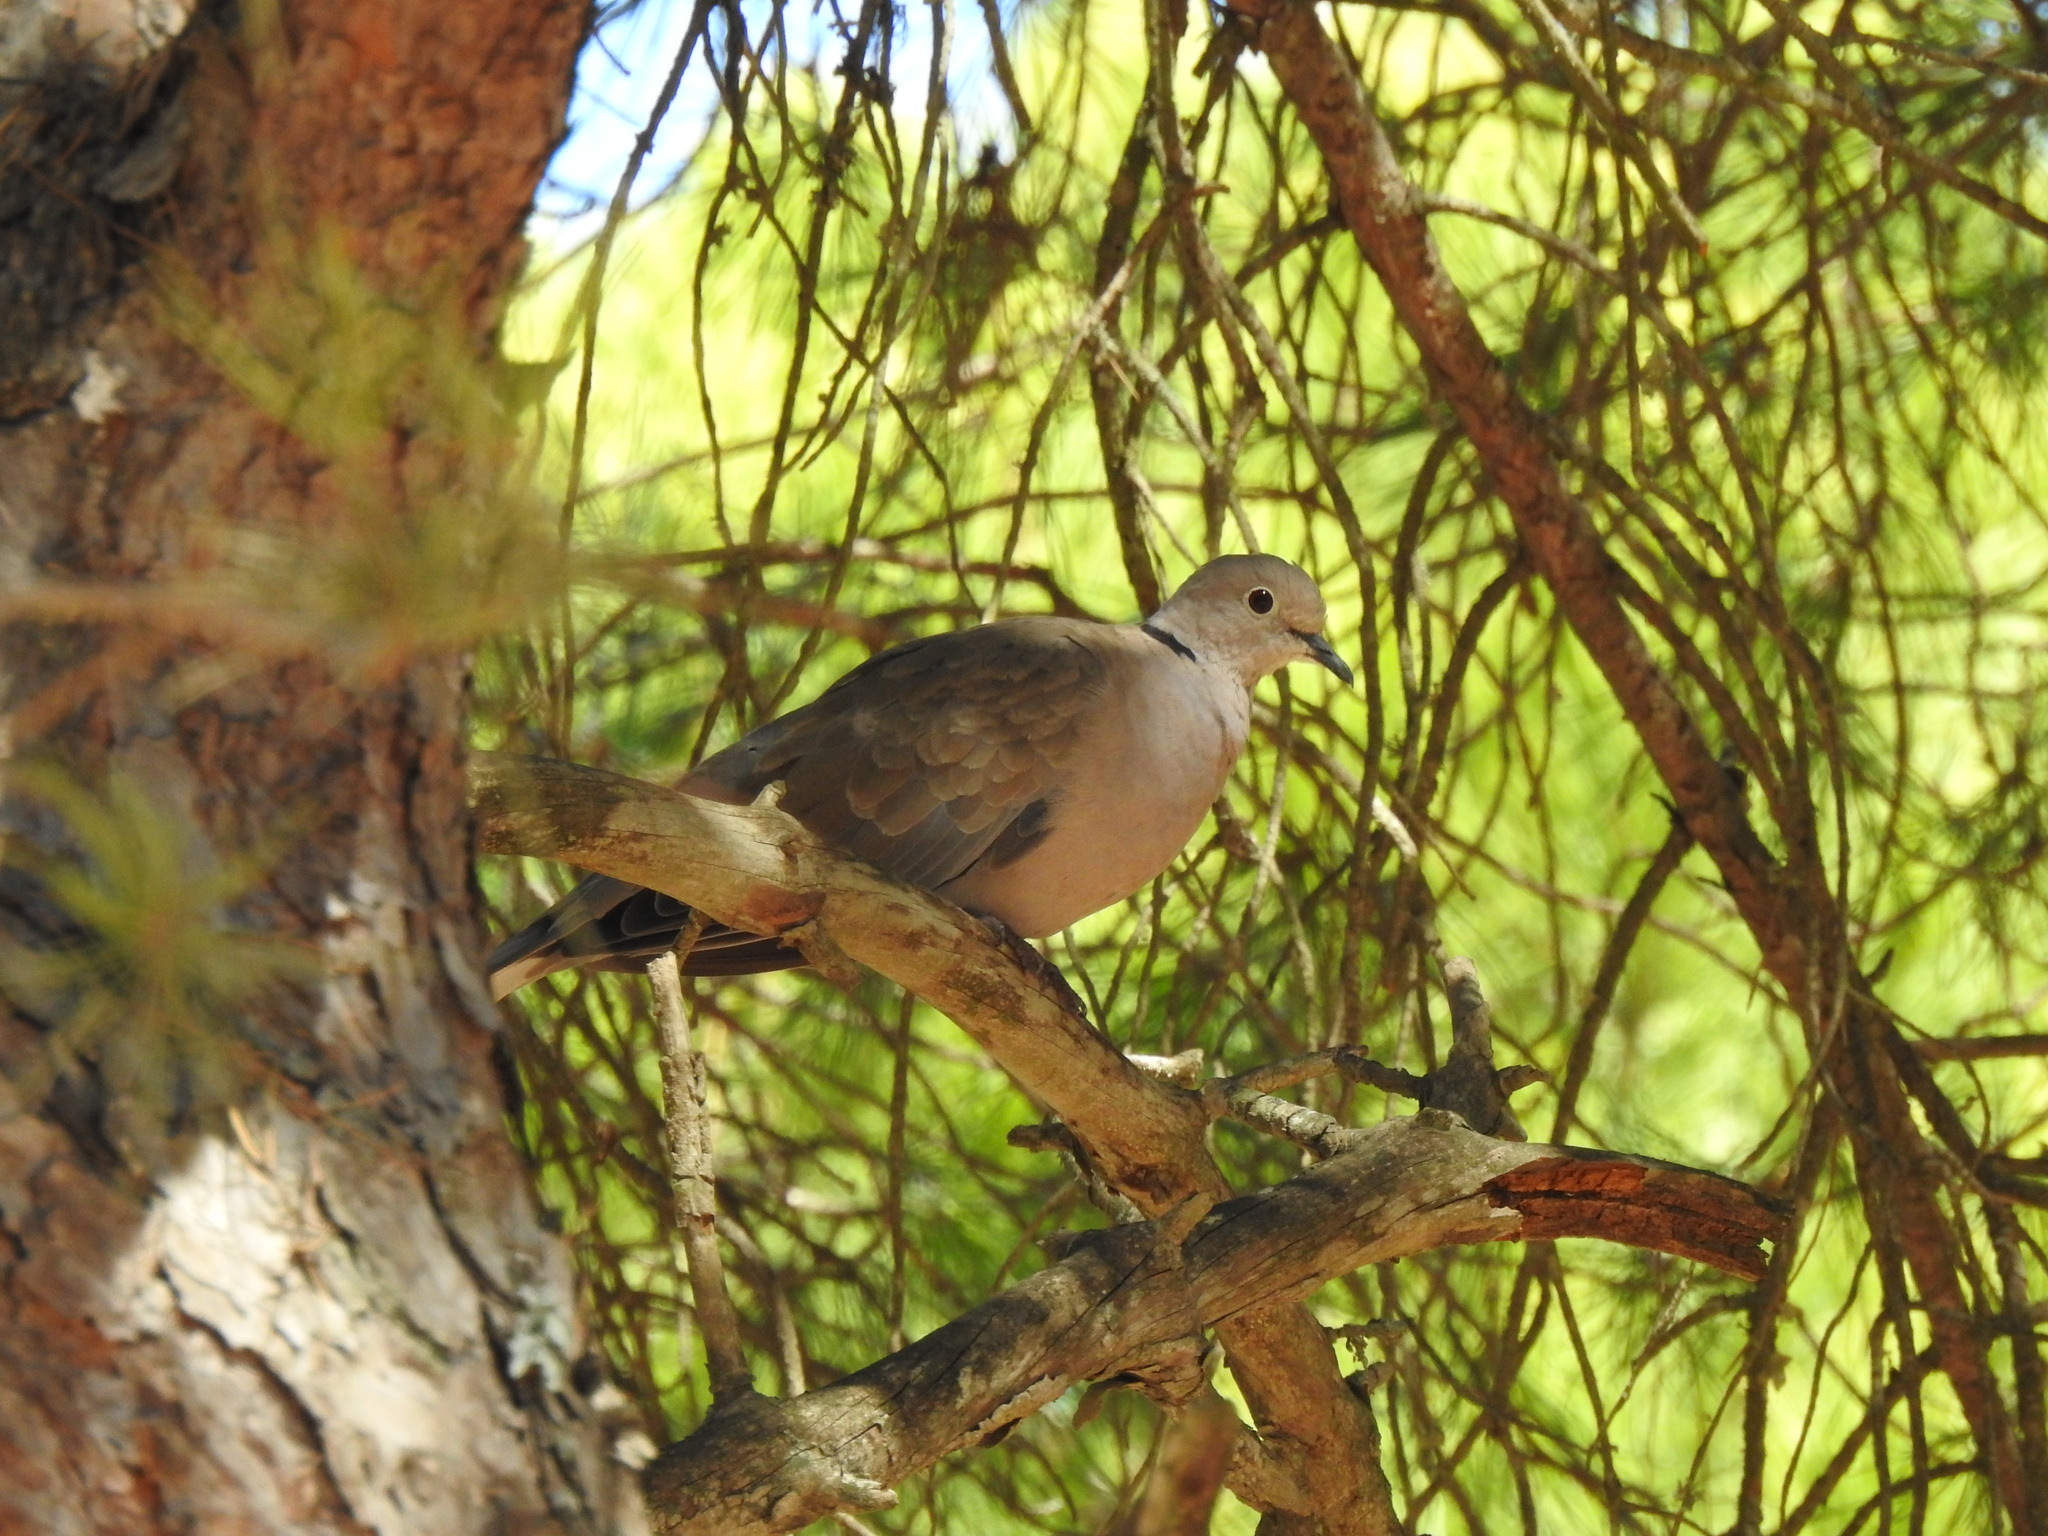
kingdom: Animalia
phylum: Chordata
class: Aves
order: Columbiformes
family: Columbidae
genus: Streptopelia
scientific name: Streptopelia decaocto
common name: Eurasian collared dove
